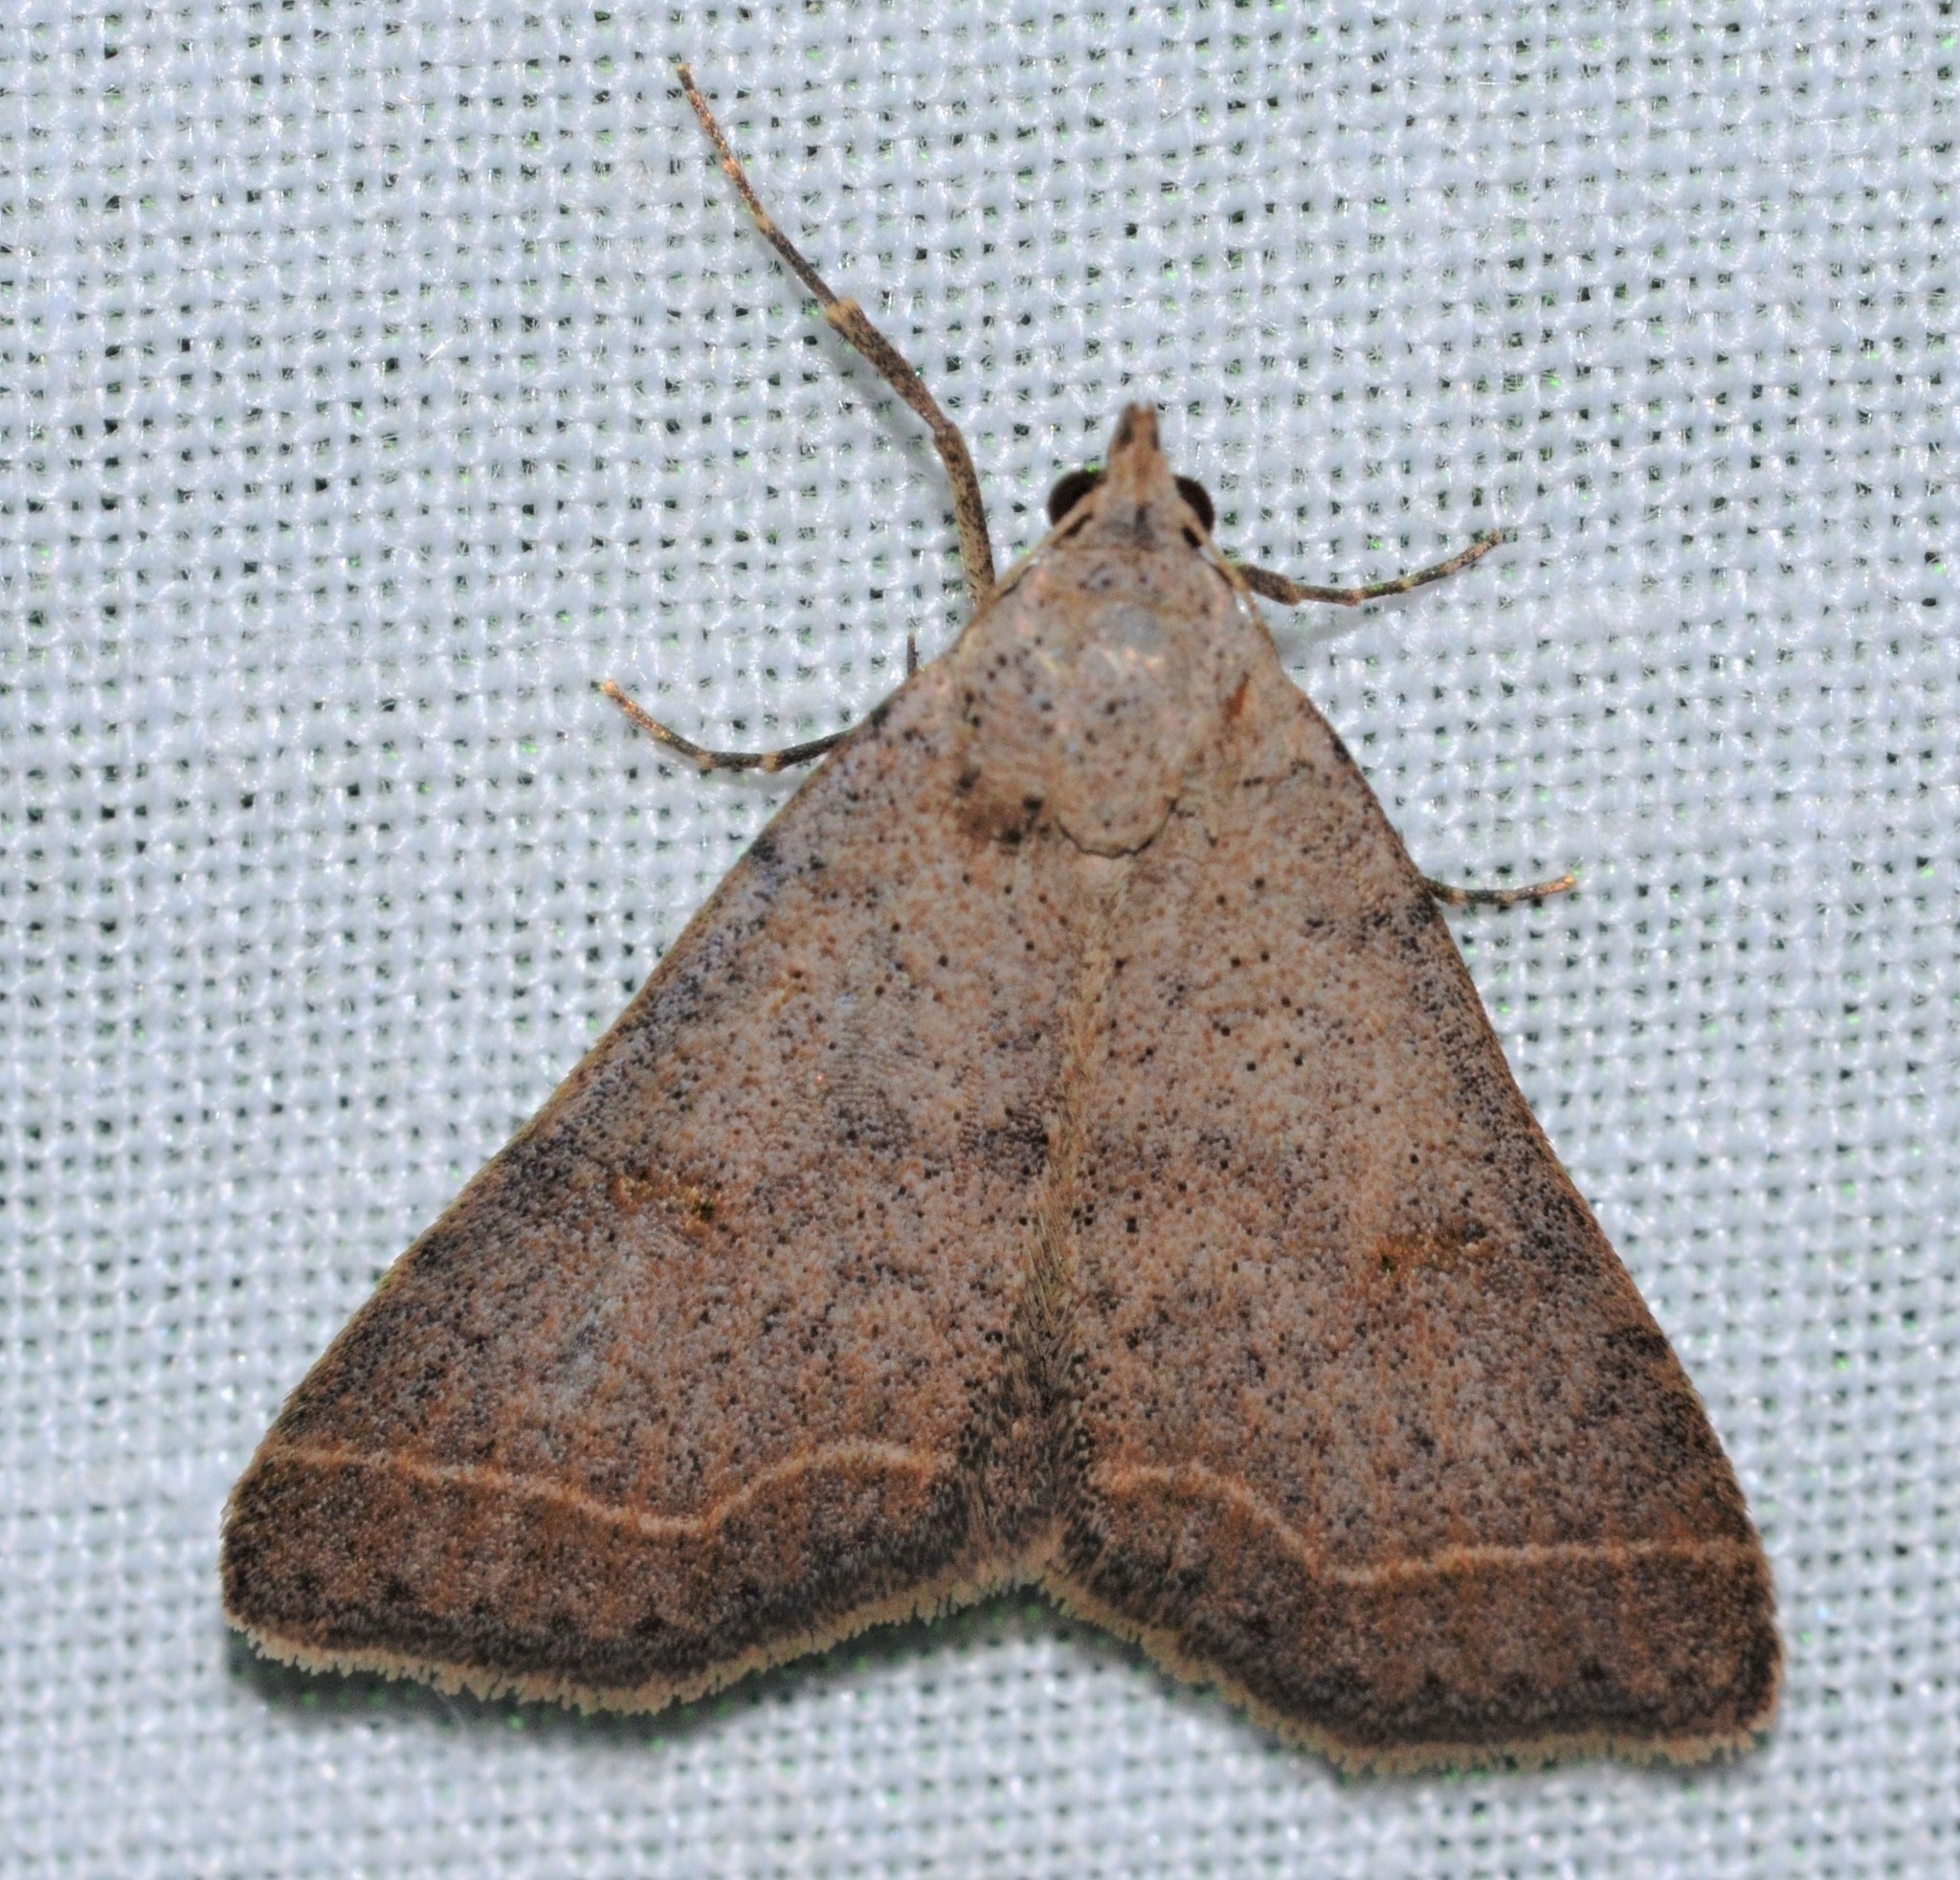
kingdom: Animalia
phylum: Arthropoda
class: Insecta
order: Lepidoptera
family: Erebidae
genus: Bleptina
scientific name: Bleptina caradrinalis
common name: Bent-winged owlet
